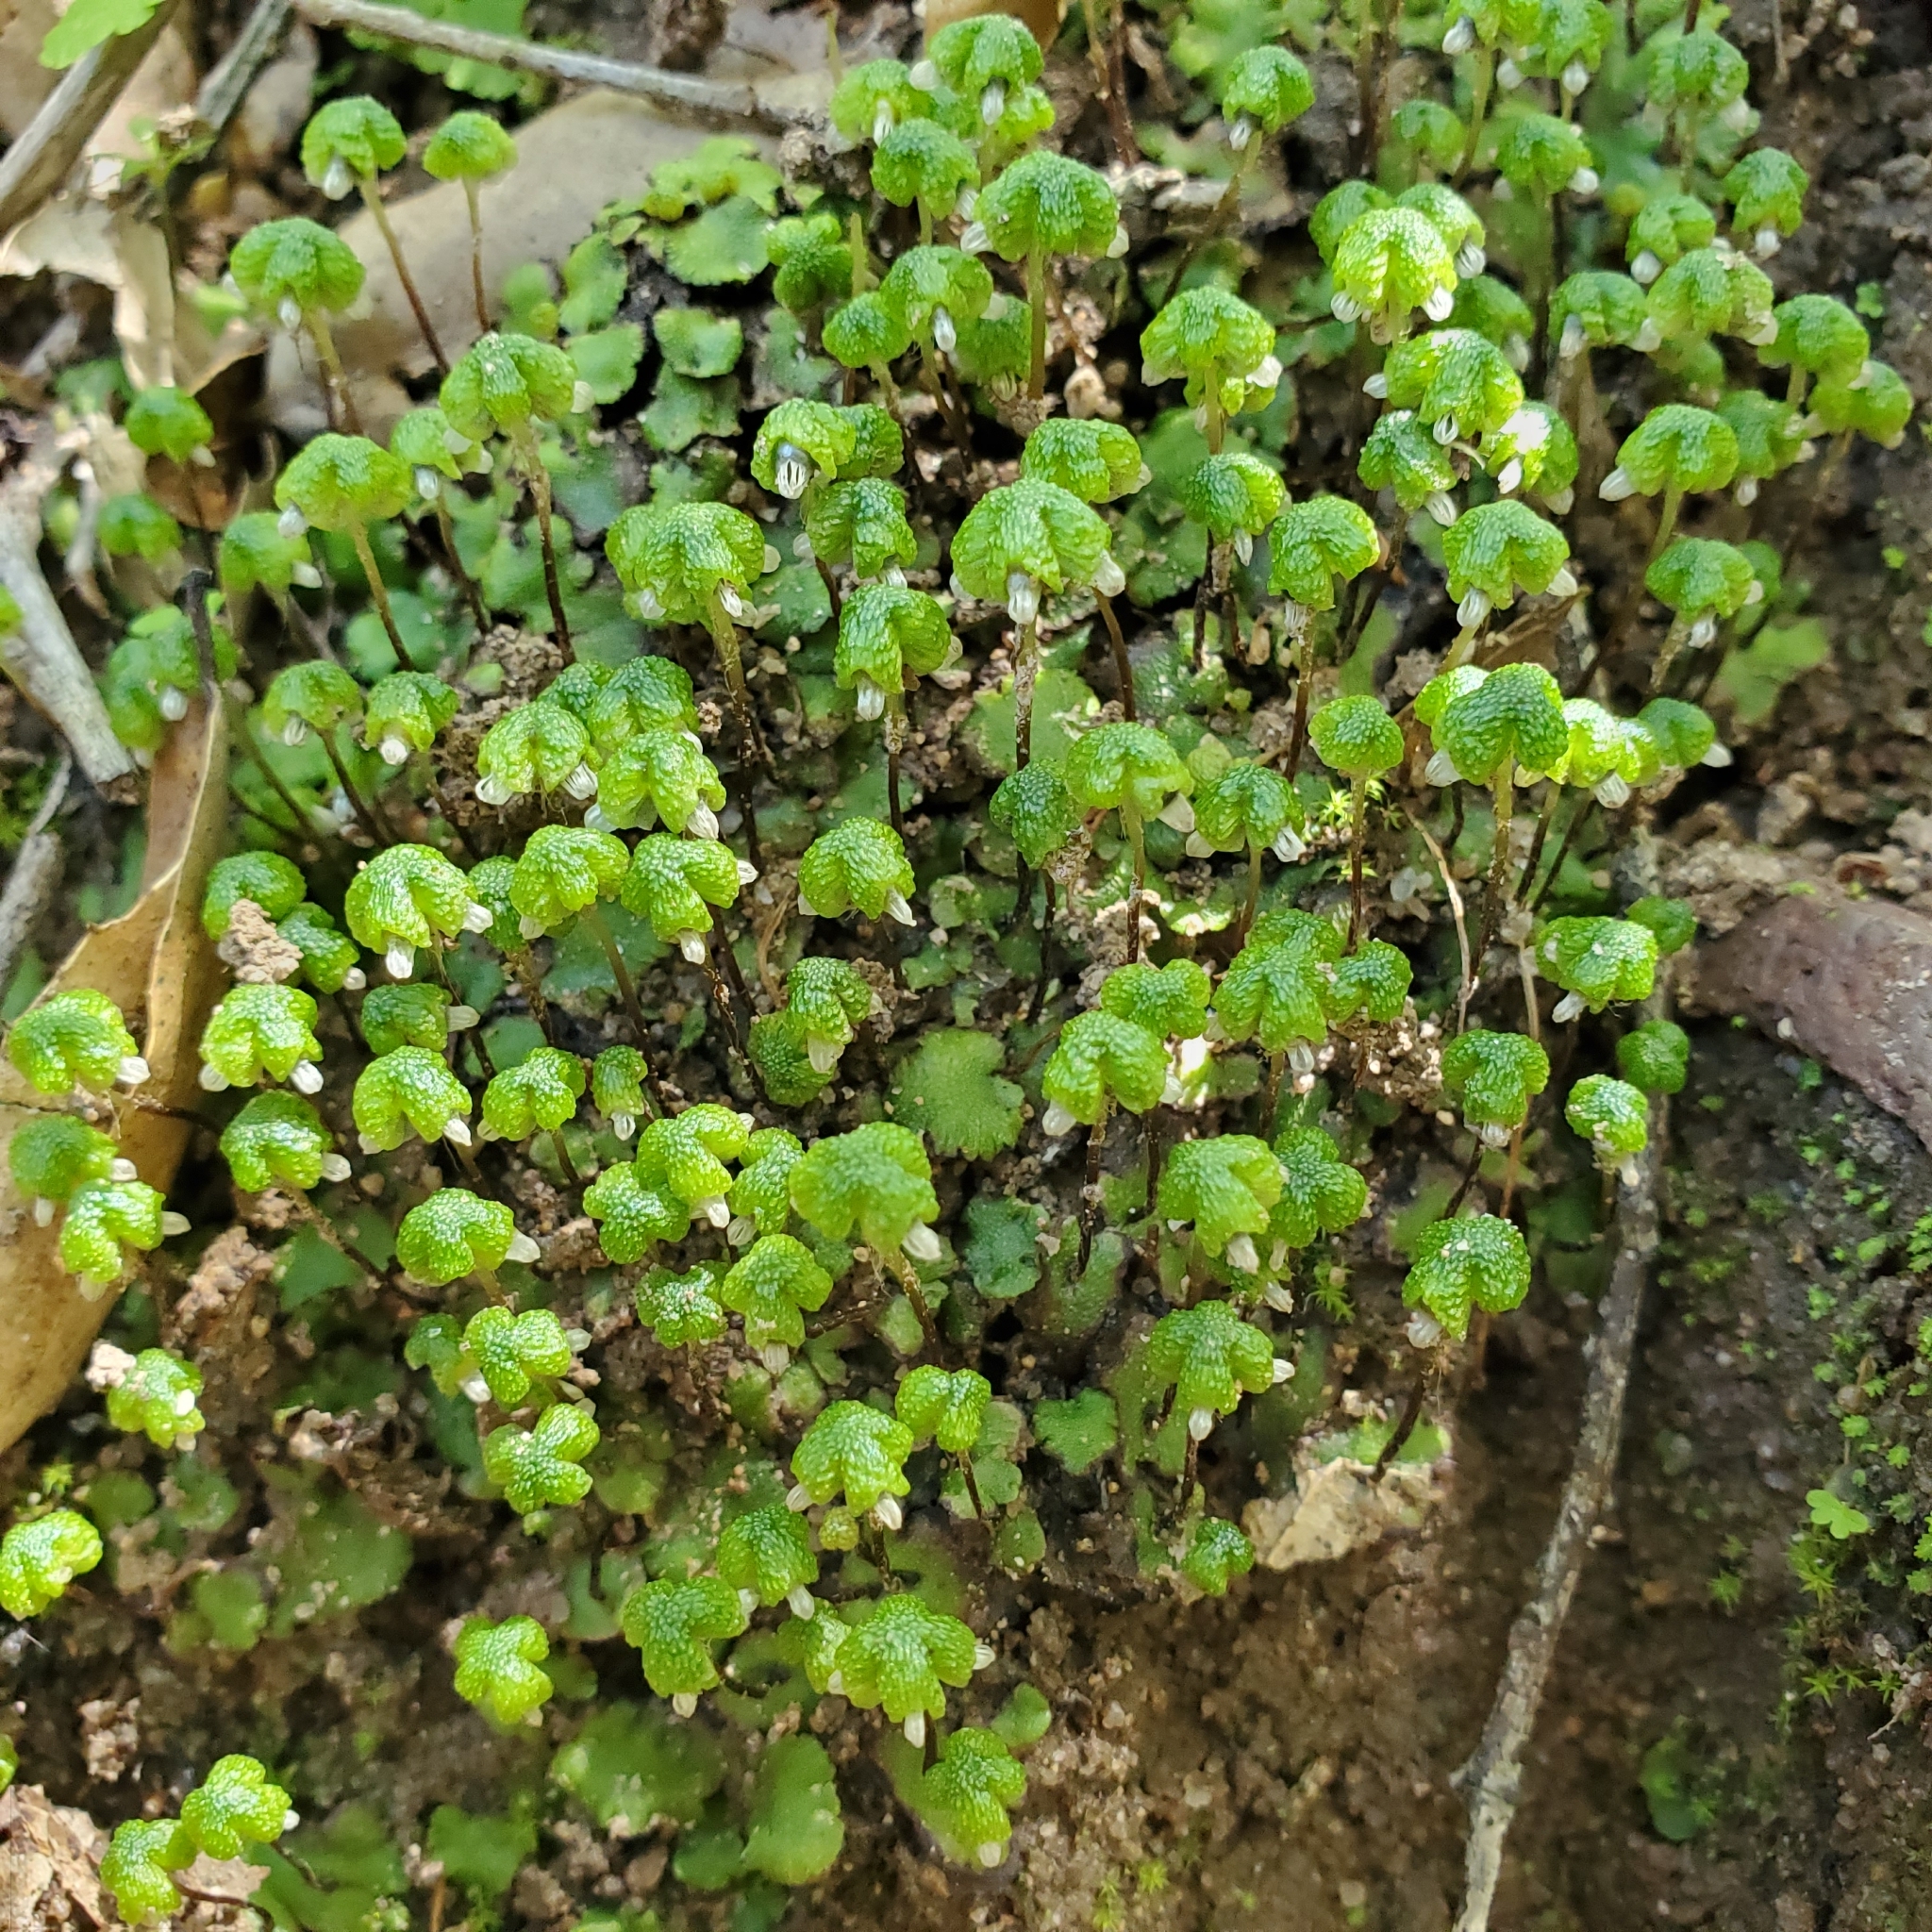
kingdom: Plantae
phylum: Marchantiophyta
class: Marchantiopsida
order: Marchantiales
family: Aytoniaceae
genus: Asterella
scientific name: Asterella californica
